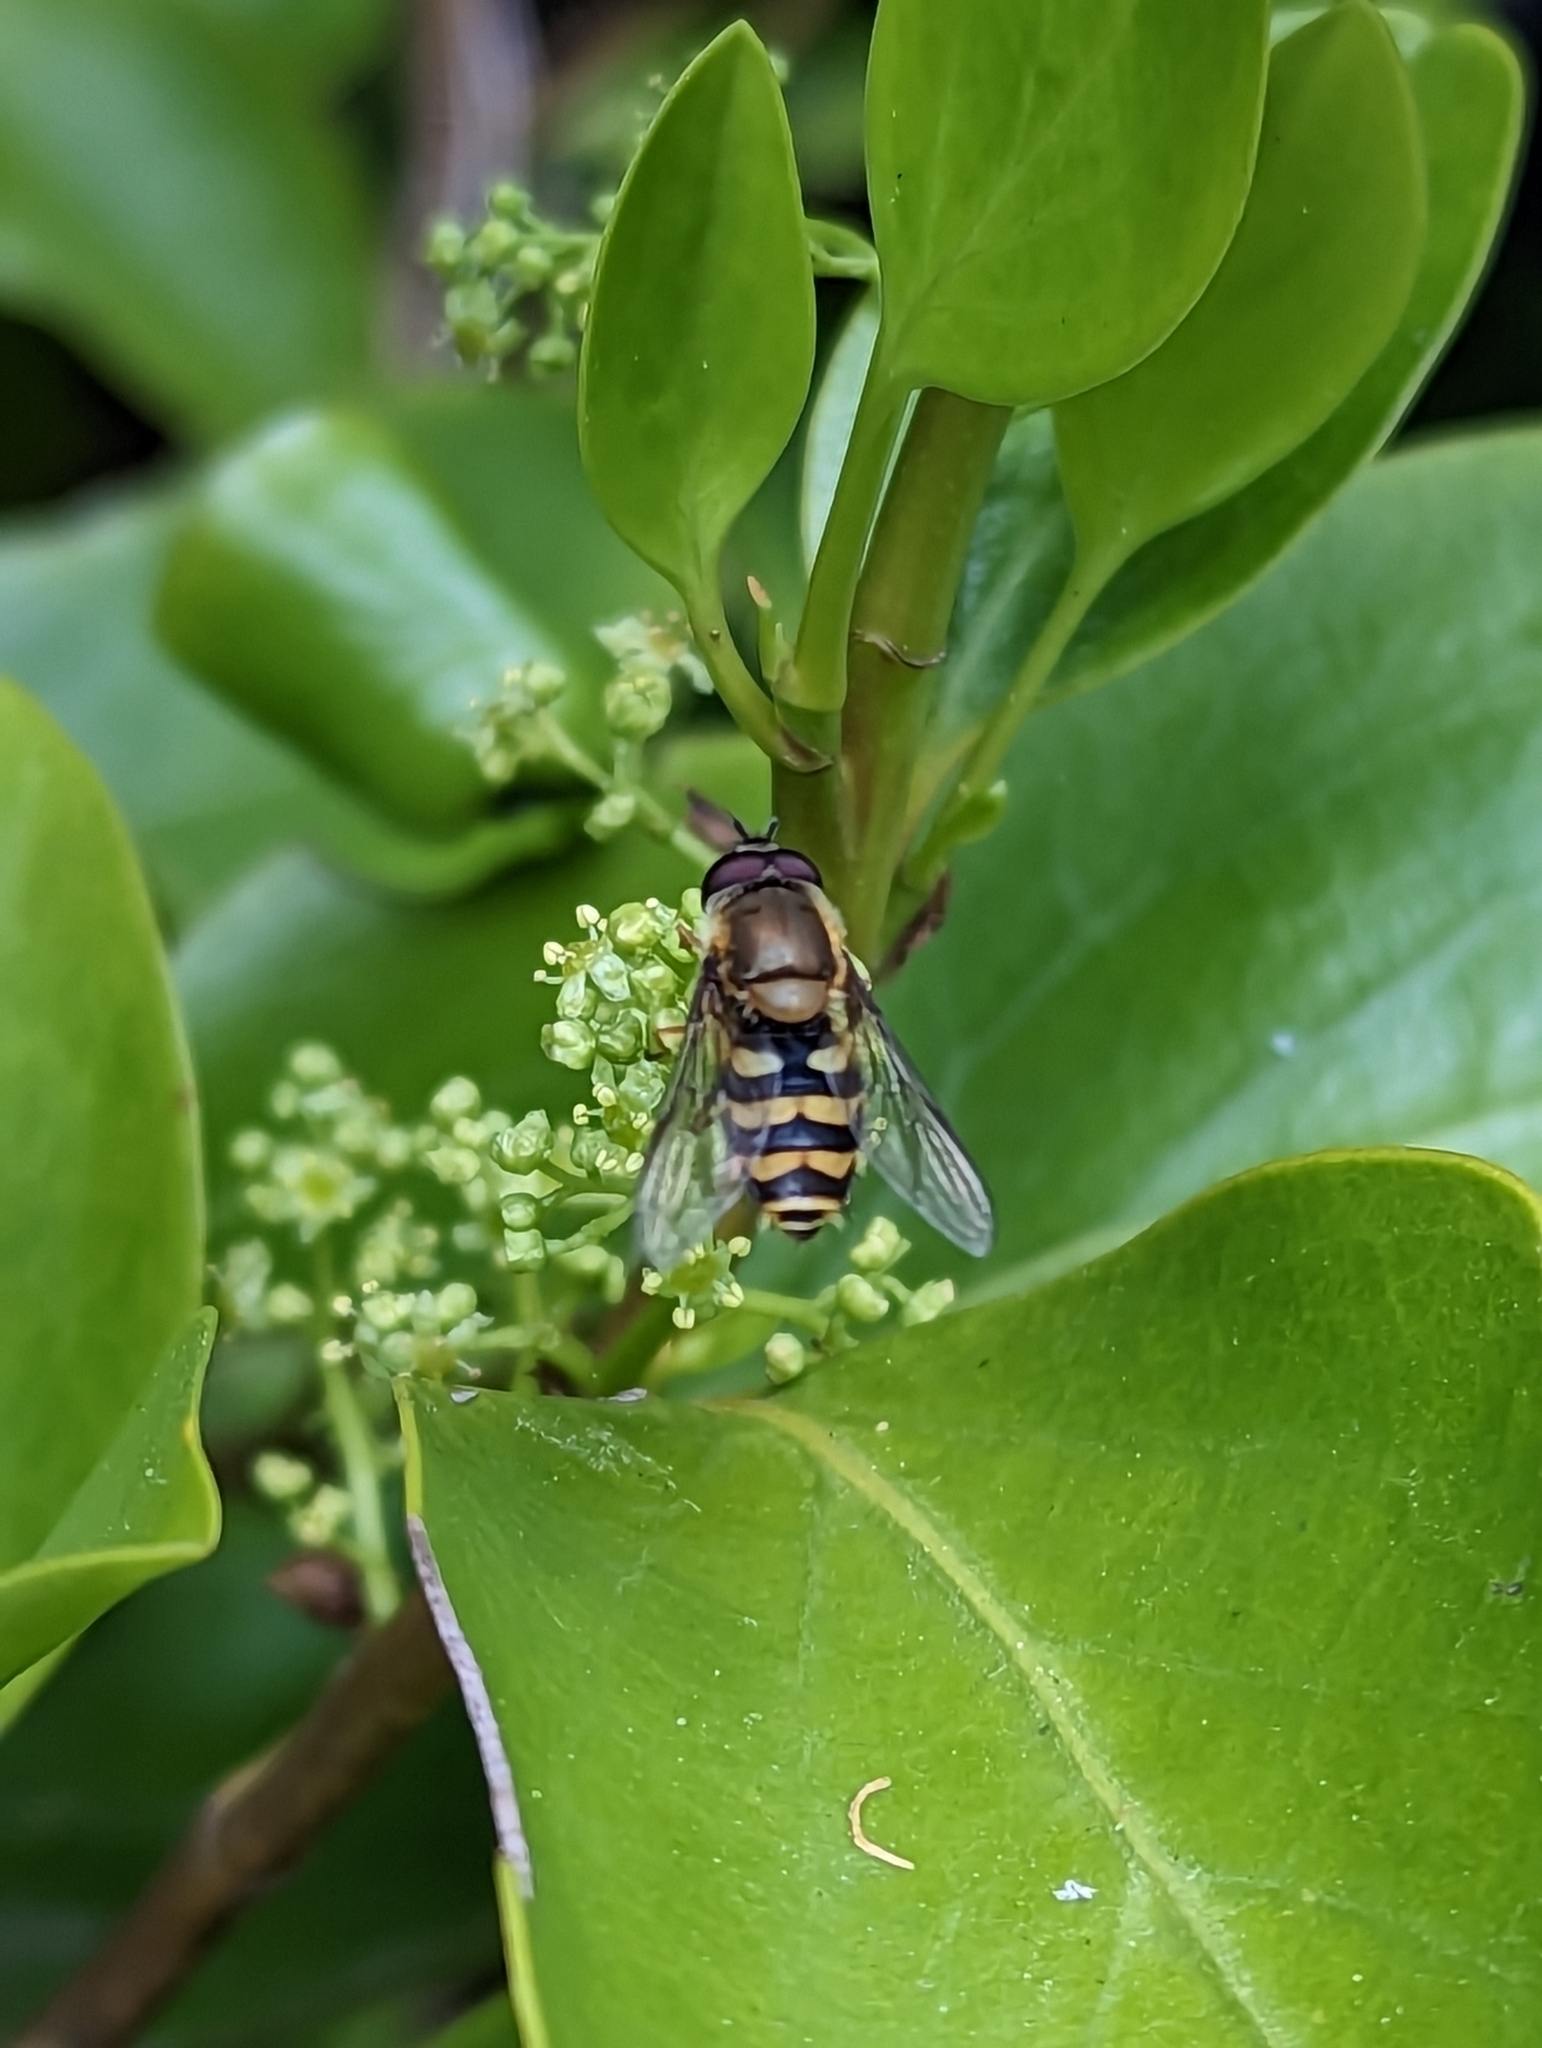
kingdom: Animalia
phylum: Arthropoda
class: Insecta
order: Diptera
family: Syrphidae
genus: Syrphus
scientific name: Syrphus
